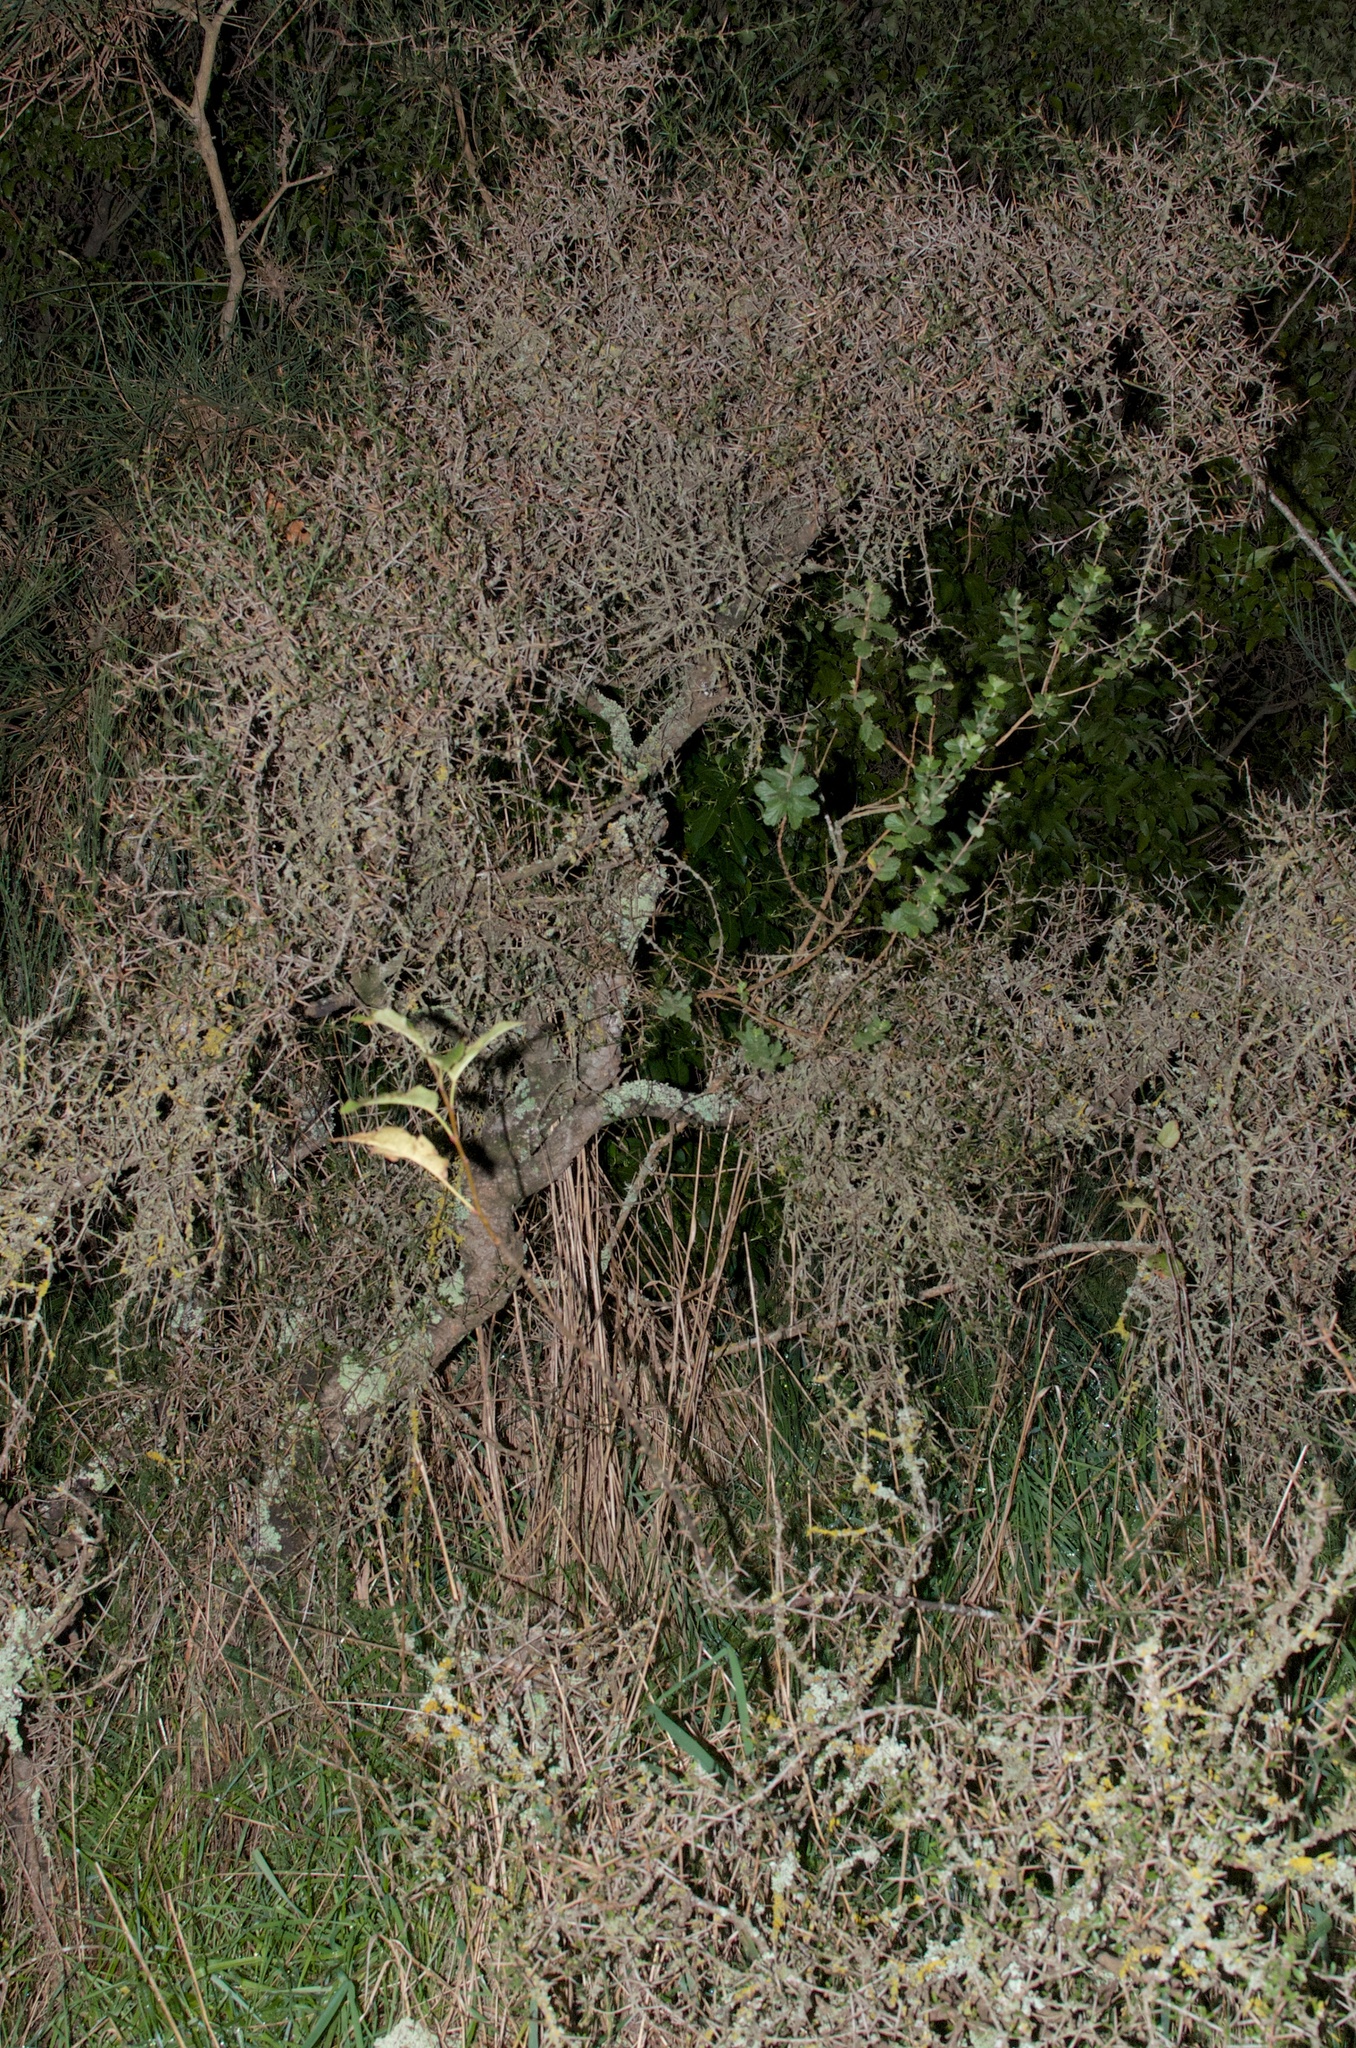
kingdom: Plantae
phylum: Tracheophyta
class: Magnoliopsida
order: Rosales
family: Rhamnaceae
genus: Discaria
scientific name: Discaria toumatou
